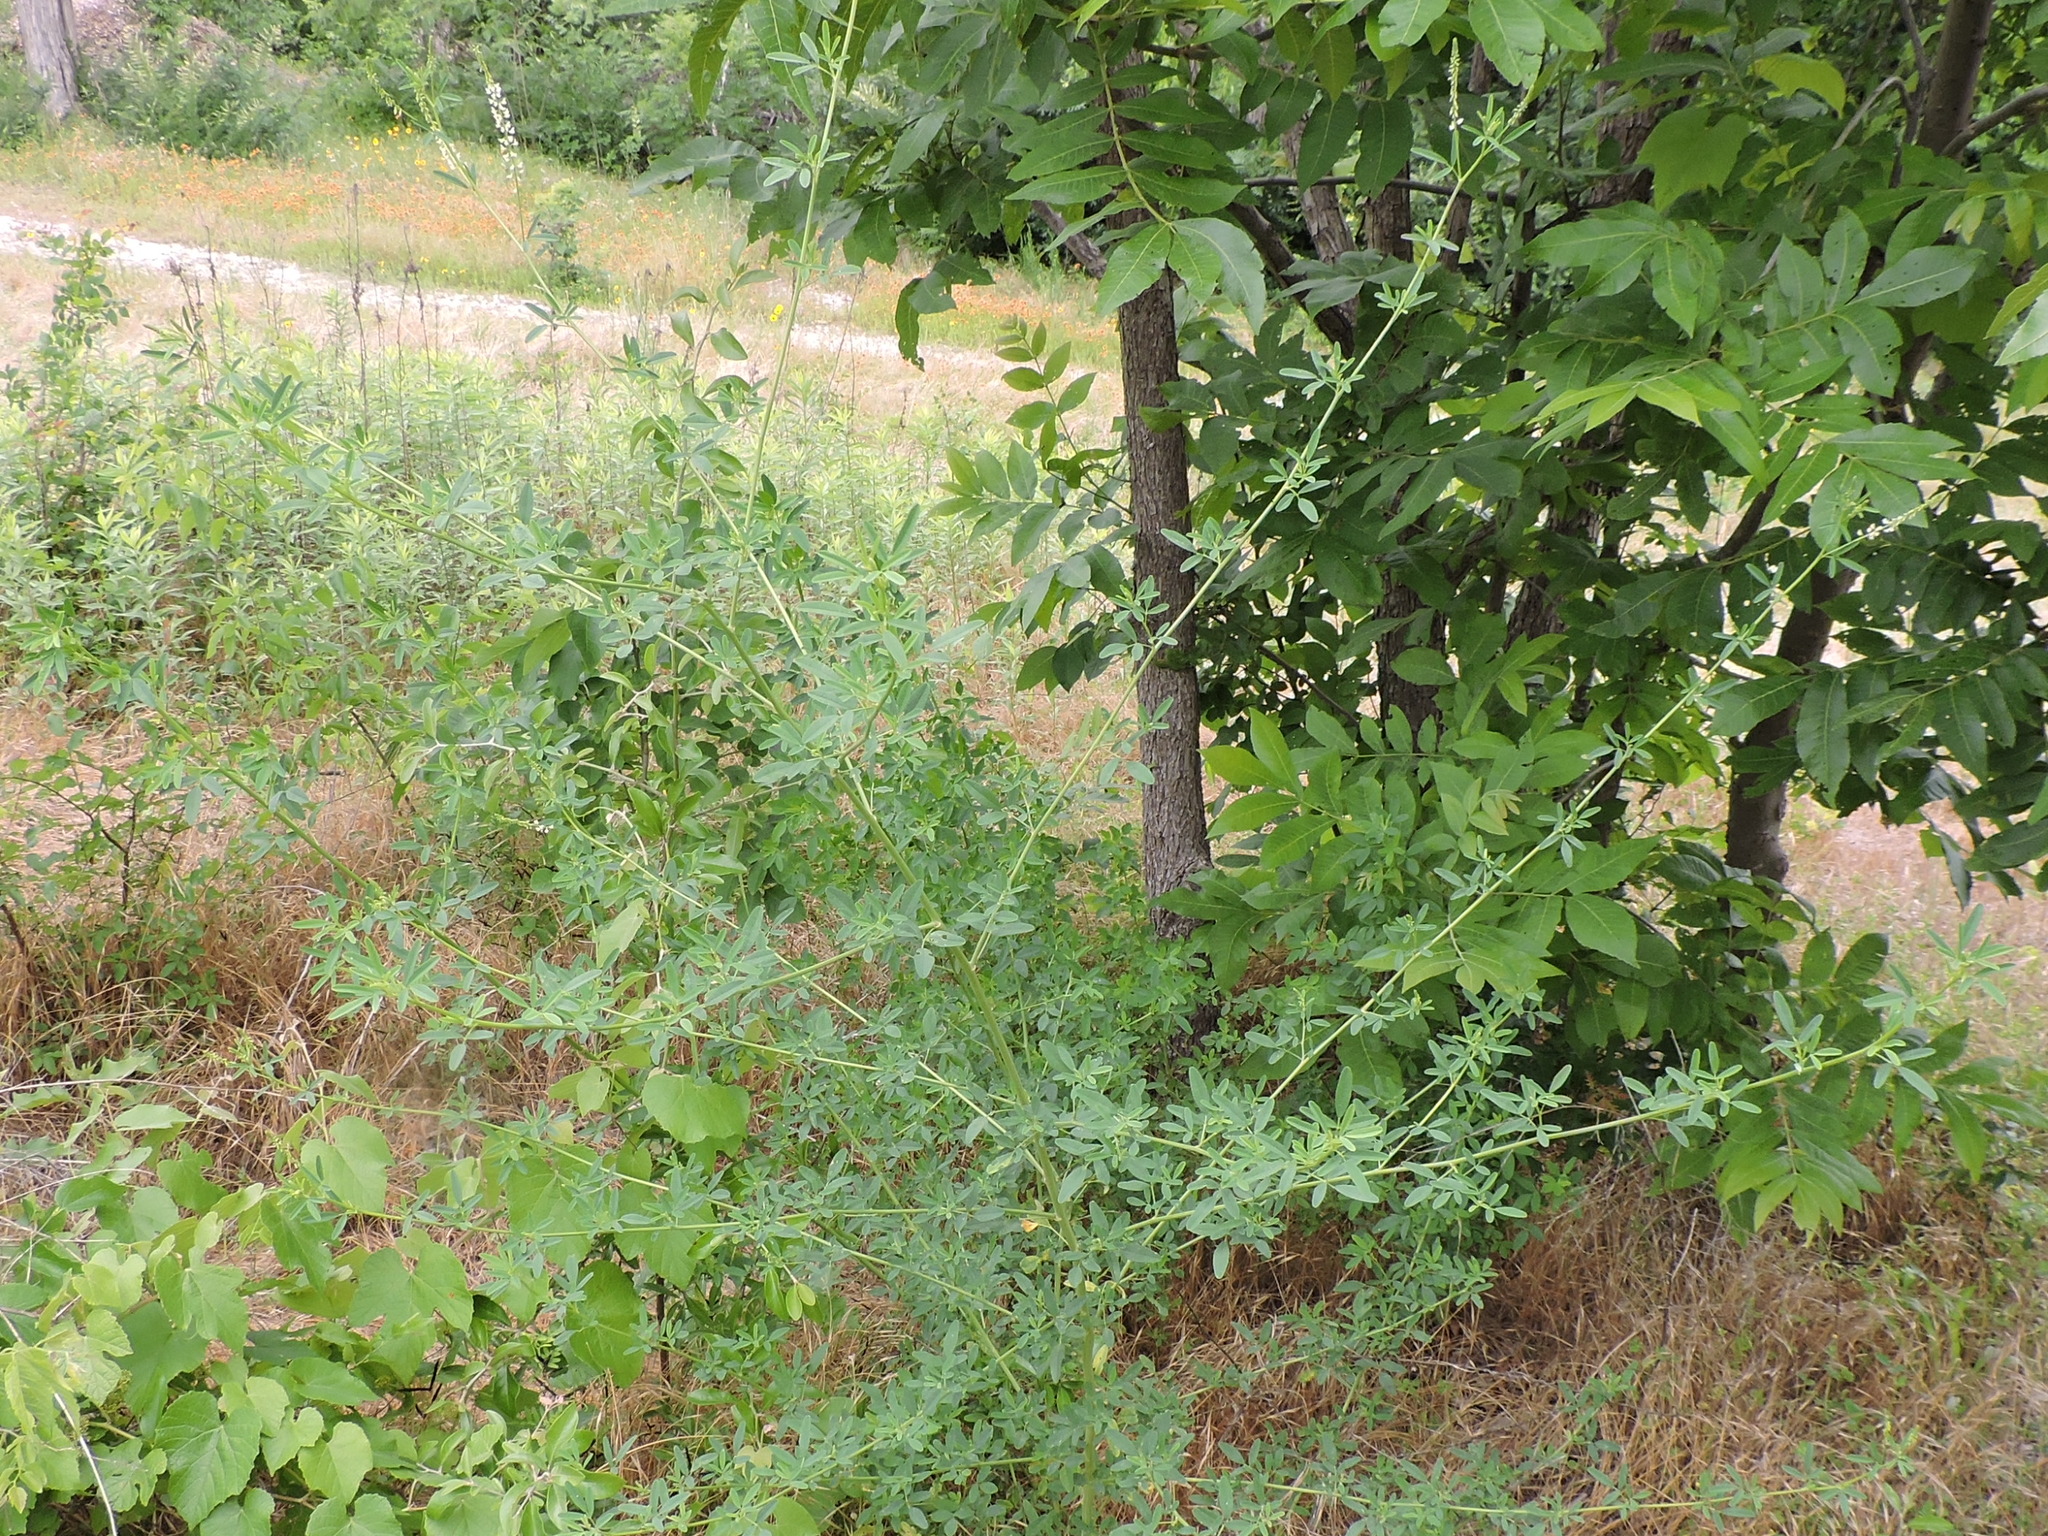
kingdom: Plantae
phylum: Tracheophyta
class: Magnoliopsida
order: Fabales
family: Fabaceae
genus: Melilotus
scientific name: Melilotus albus
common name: White melilot
